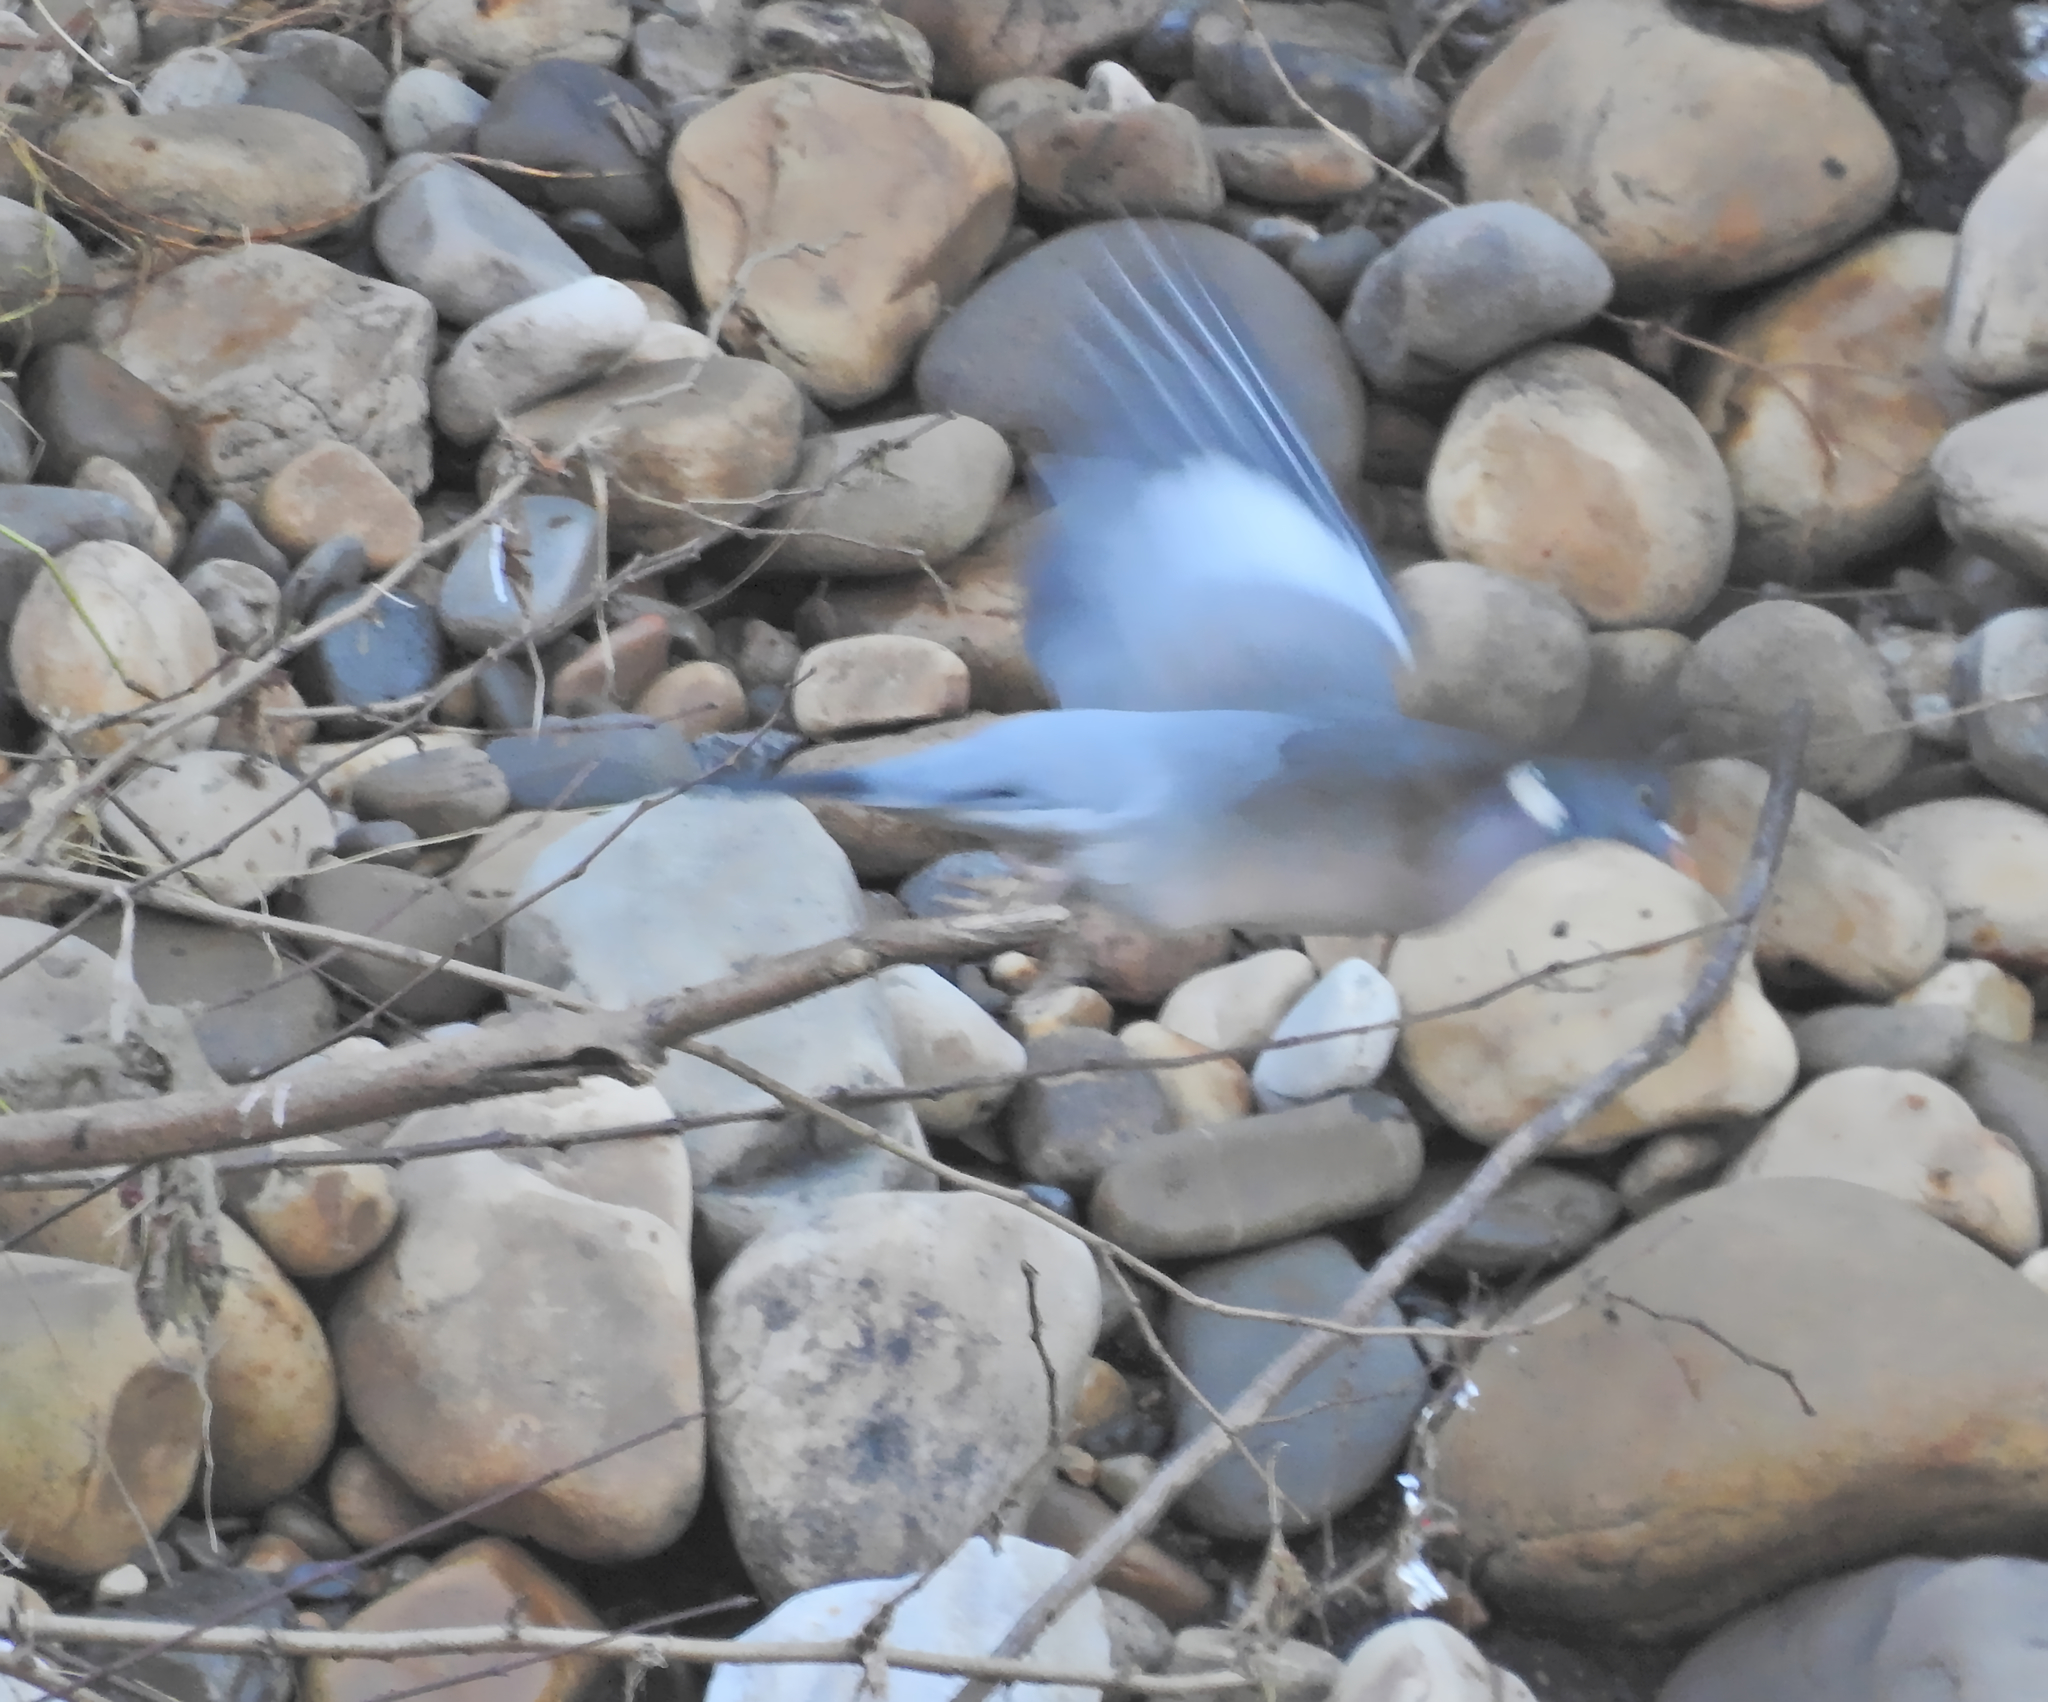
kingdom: Animalia
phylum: Chordata
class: Aves
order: Columbiformes
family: Columbidae
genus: Columba
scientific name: Columba palumbus
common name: Common wood pigeon
